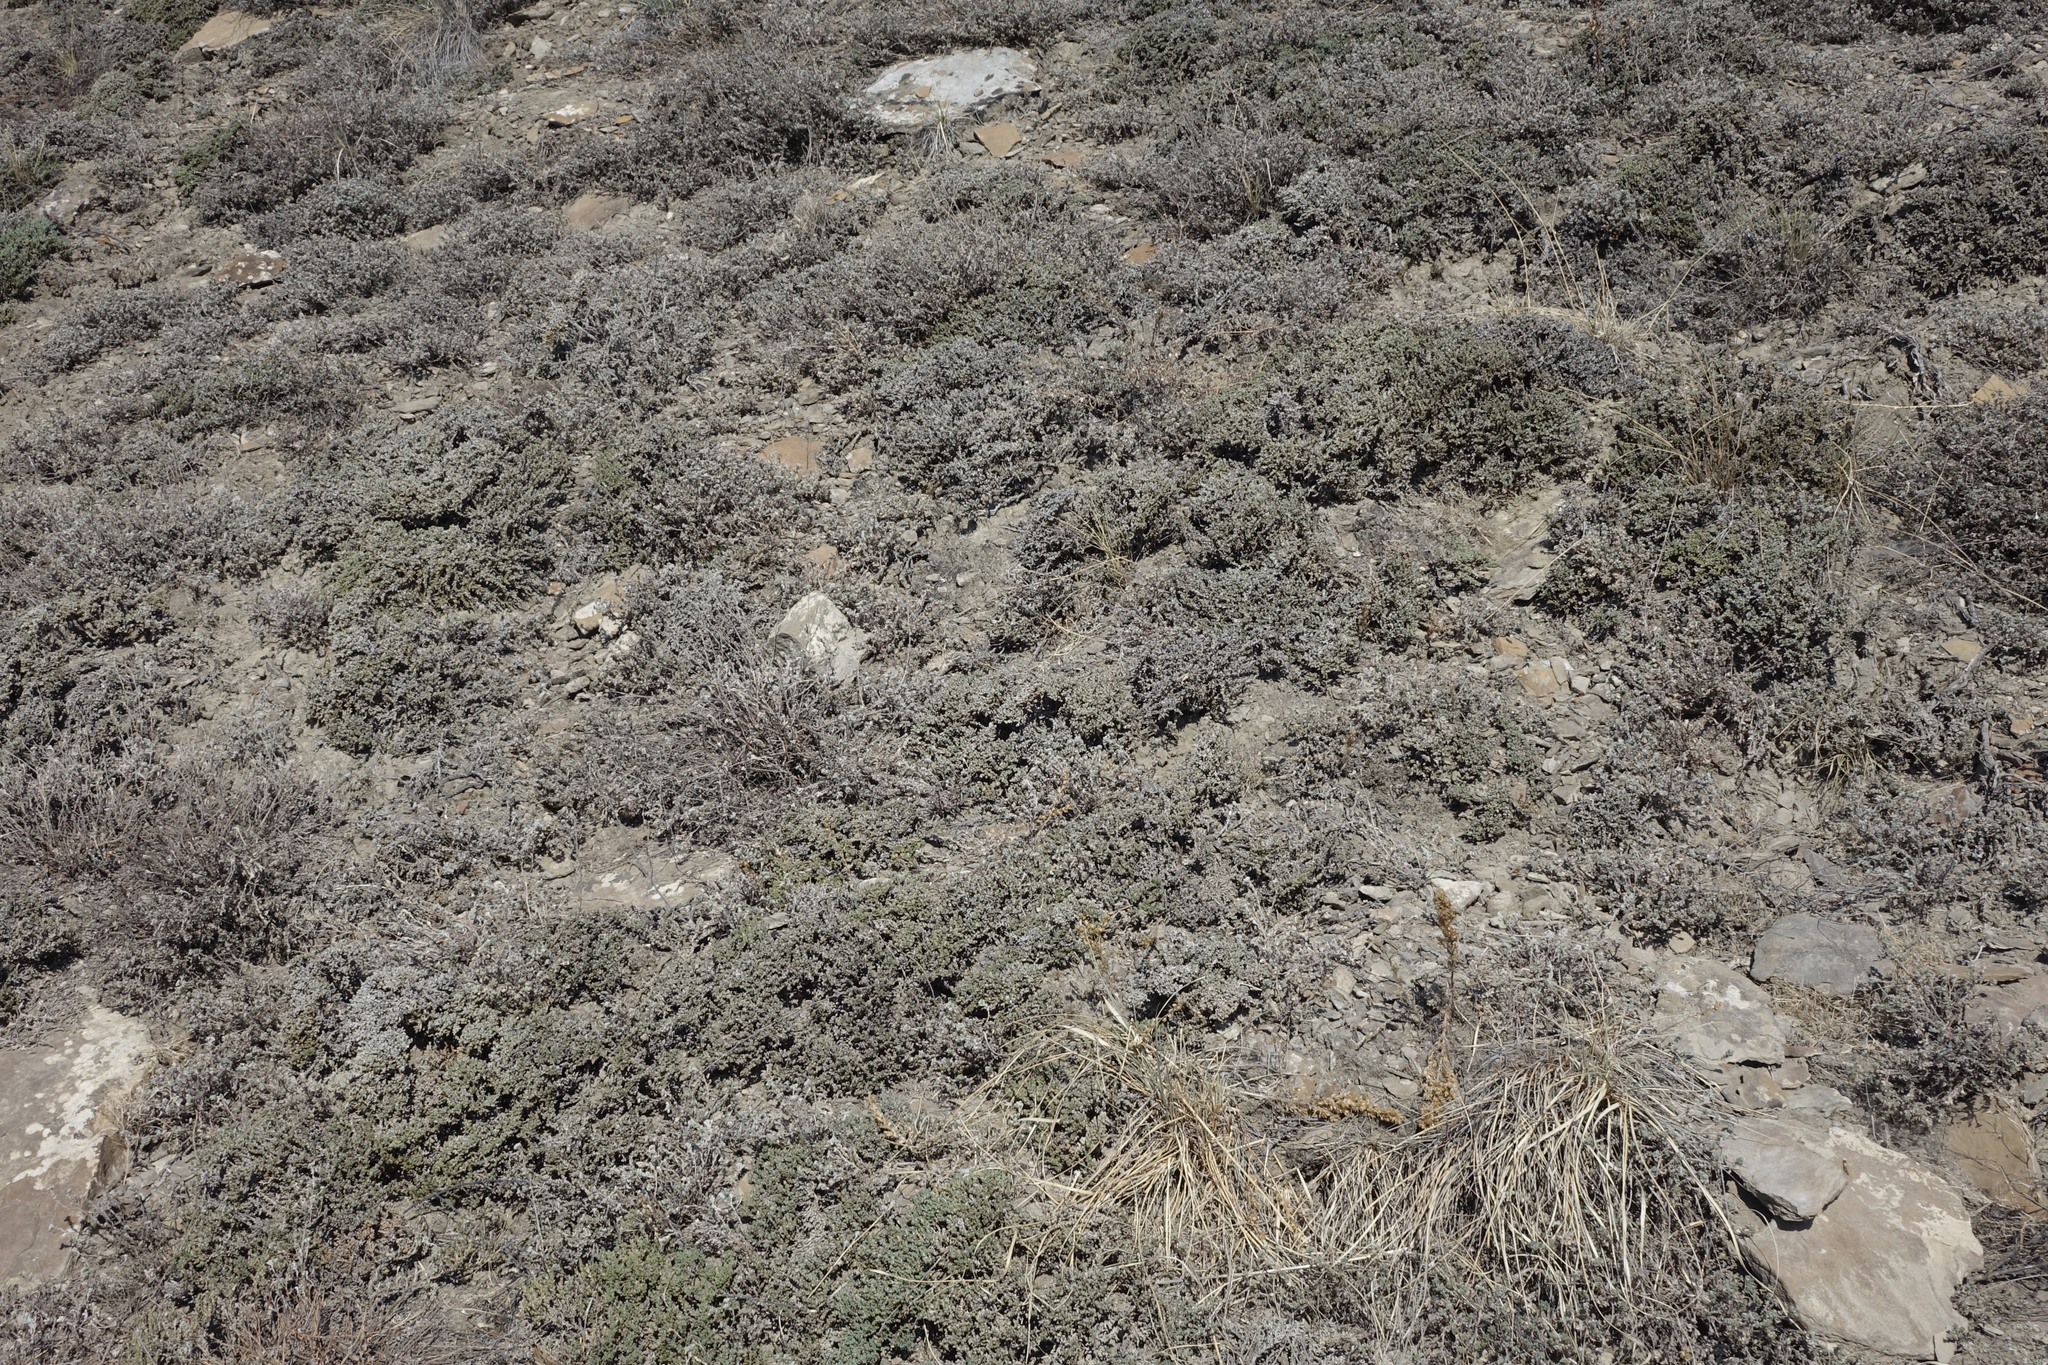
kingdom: Plantae
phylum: Tracheophyta
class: Magnoliopsida
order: Caryophyllales
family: Amaranthaceae
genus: Nanophyton
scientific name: Nanophyton grubovii
